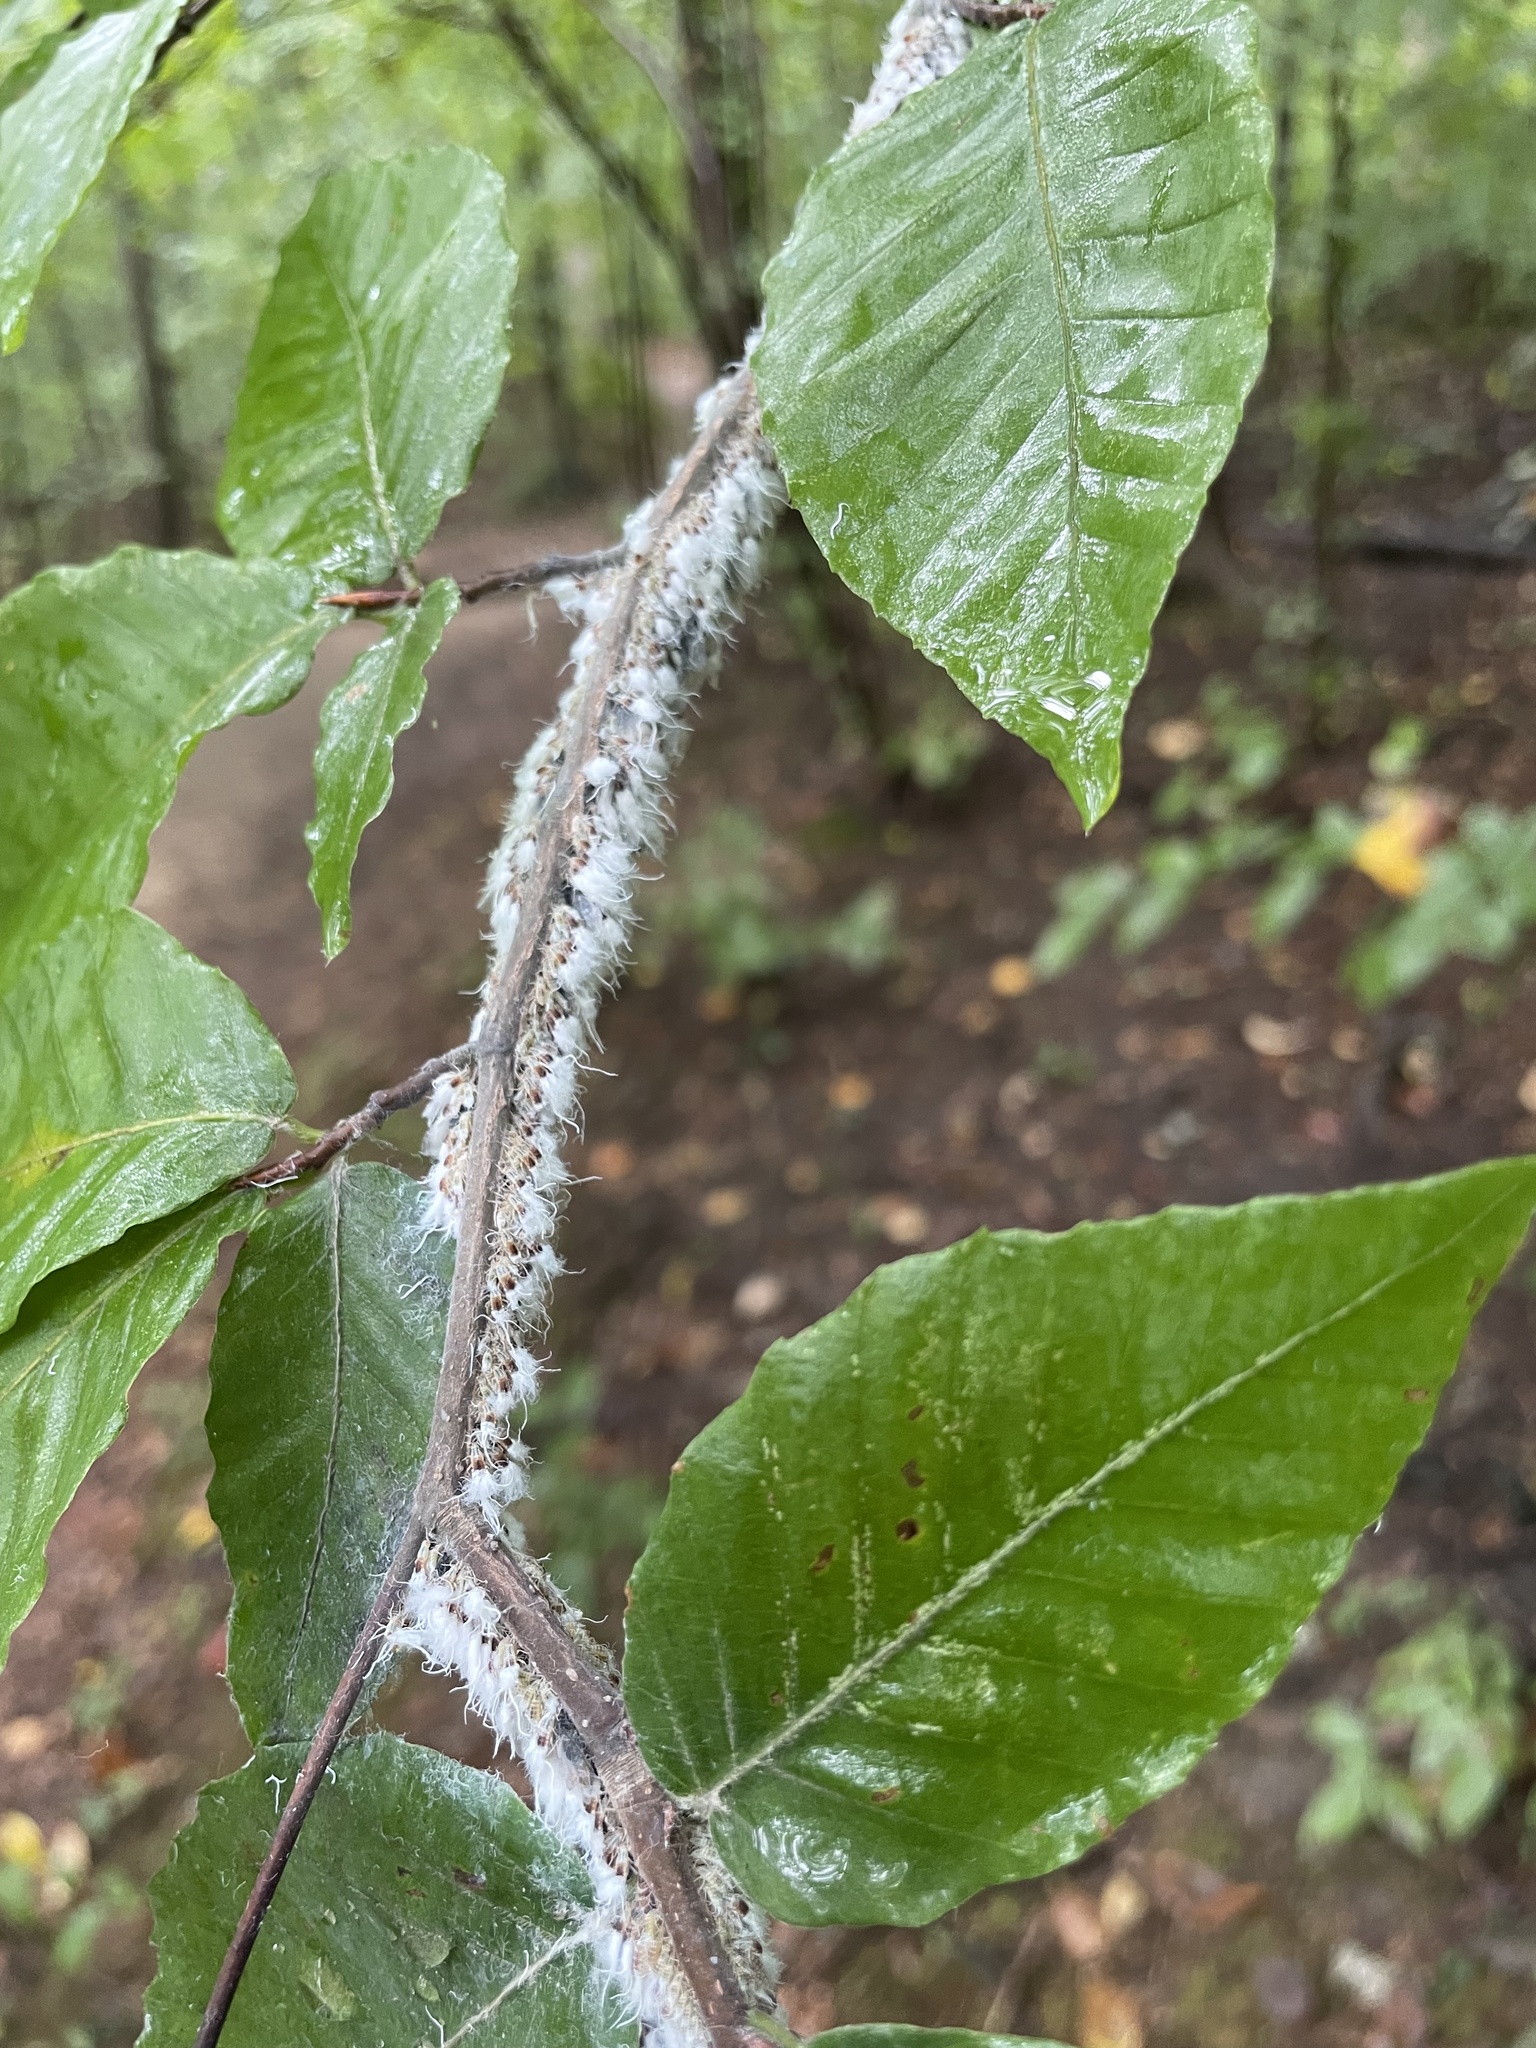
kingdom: Animalia
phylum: Arthropoda
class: Insecta
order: Hemiptera
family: Aphididae
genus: Grylloprociphilus
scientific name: Grylloprociphilus imbricator
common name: Beech blight aphid
